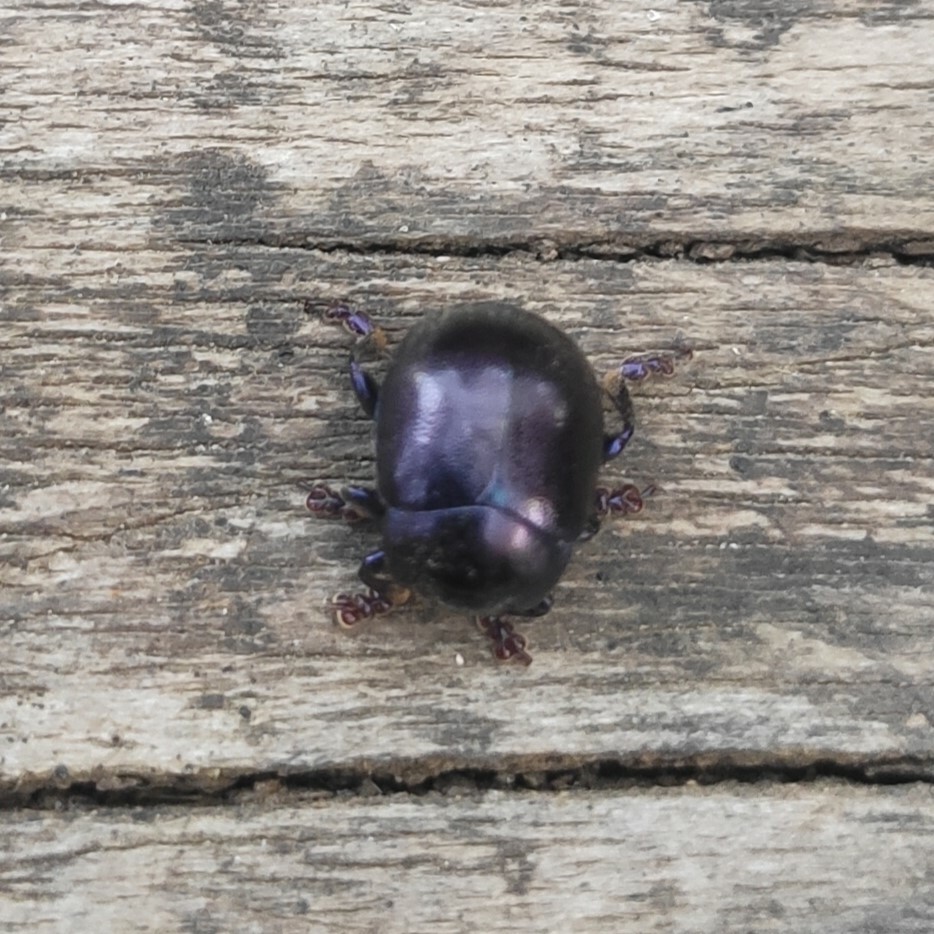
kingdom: Animalia
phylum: Arthropoda
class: Insecta
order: Coleoptera
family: Chrysomelidae
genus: Chrysolina
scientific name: Chrysolina sturmi
